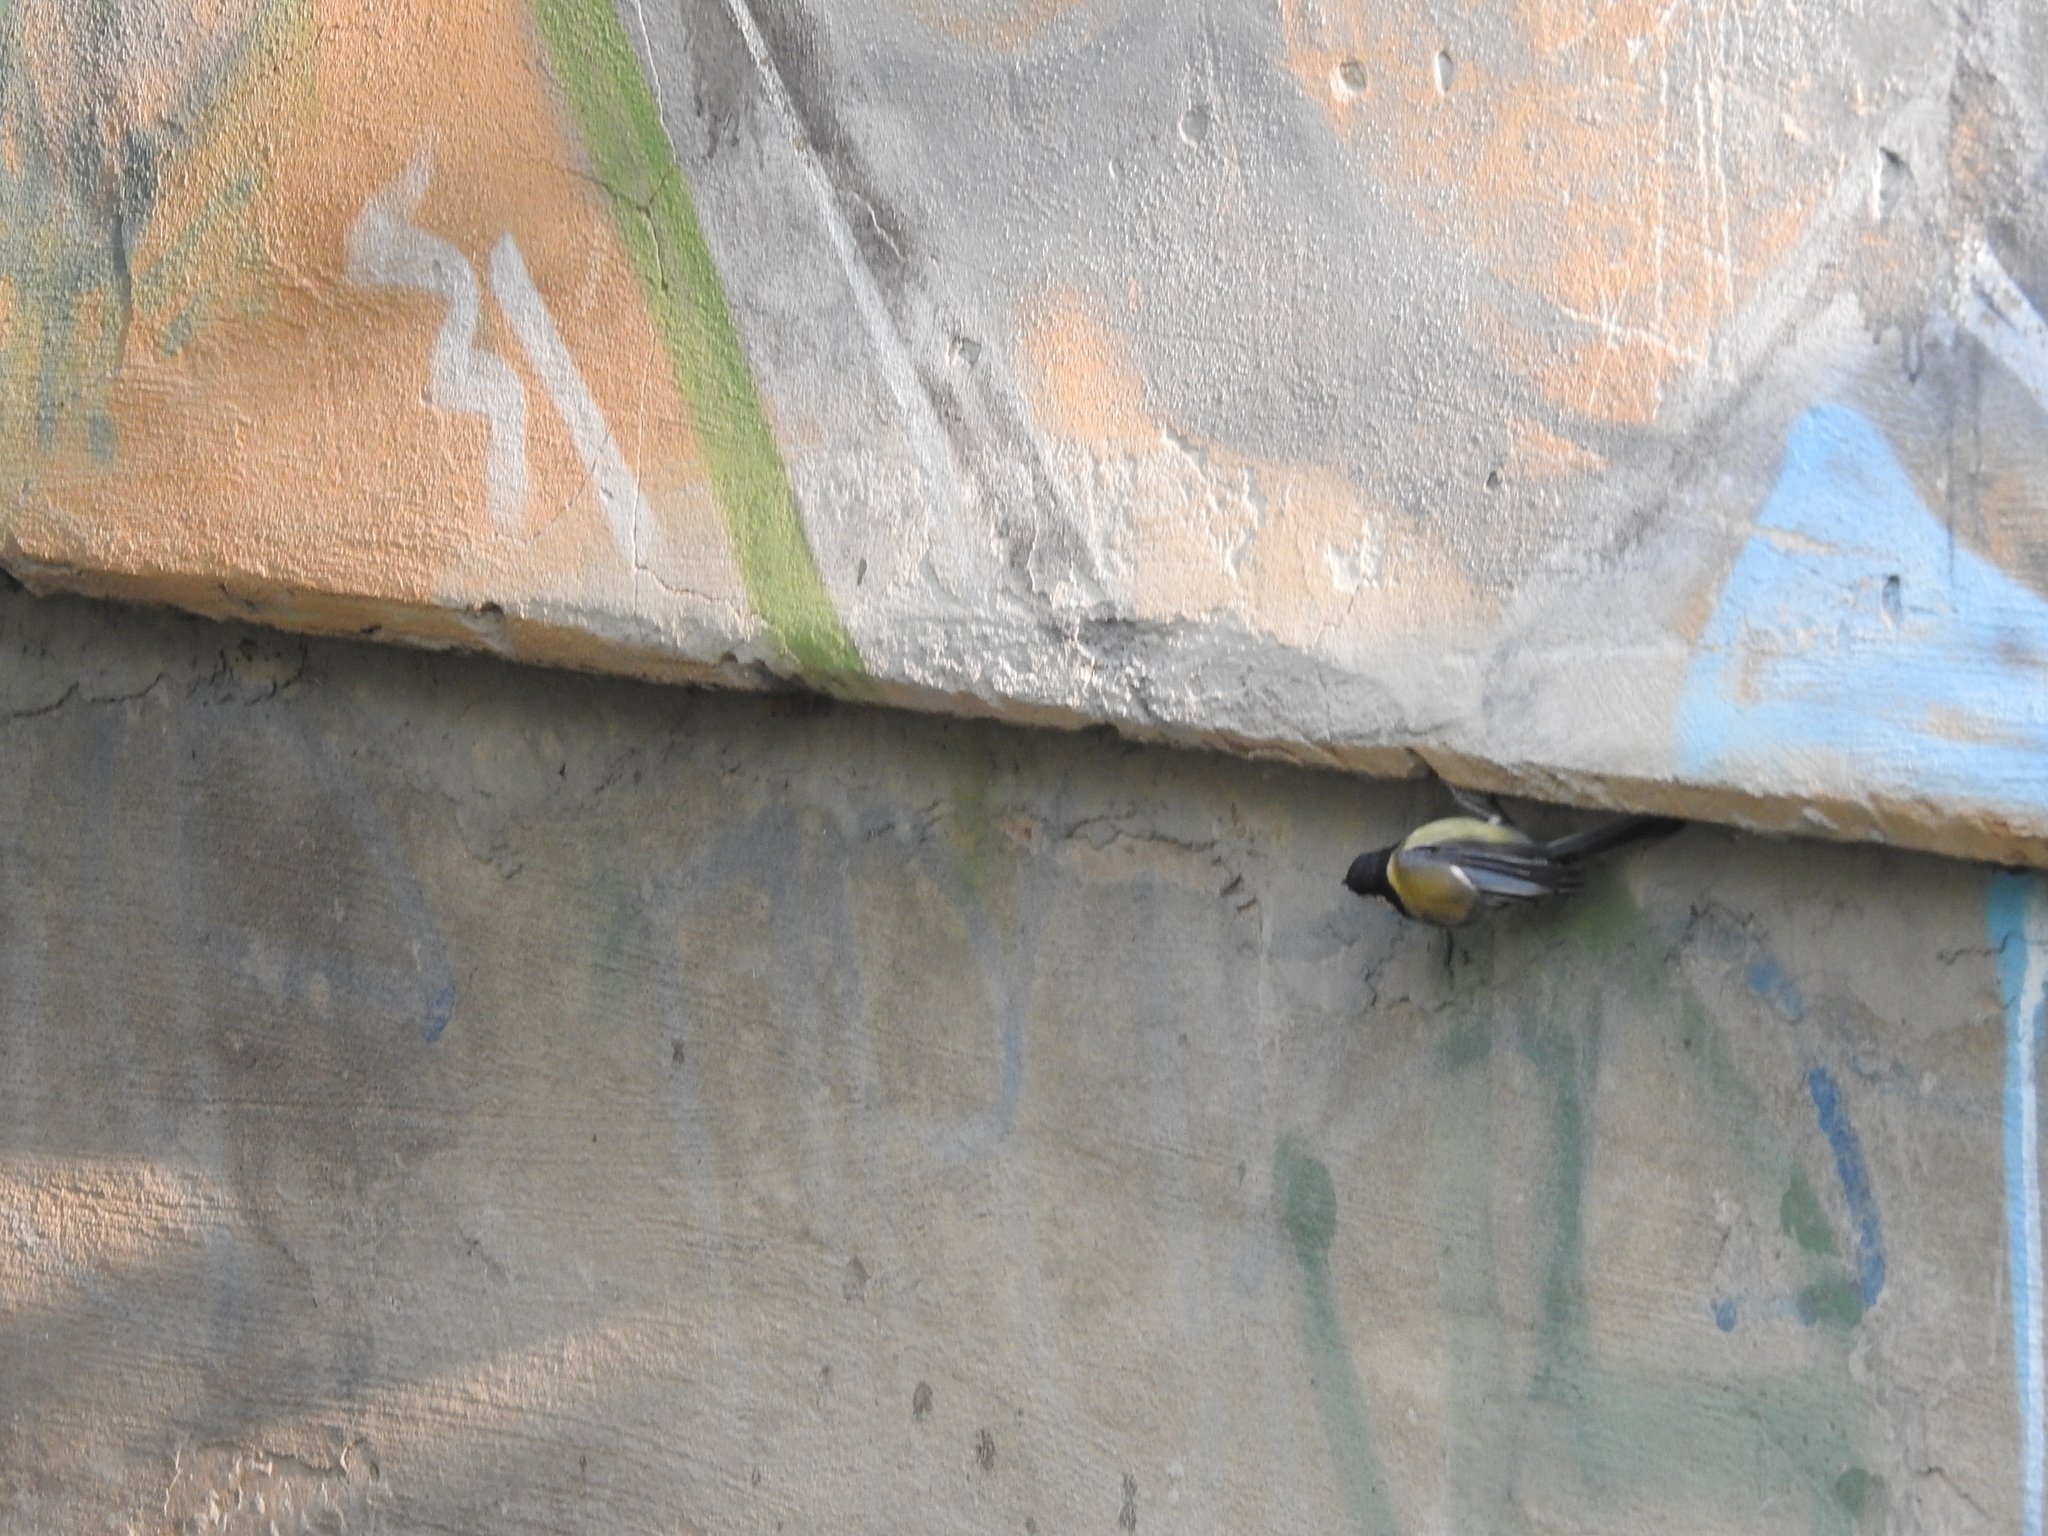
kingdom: Animalia
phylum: Chordata
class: Aves
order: Passeriformes
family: Paridae
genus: Parus
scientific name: Parus major
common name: Great tit
